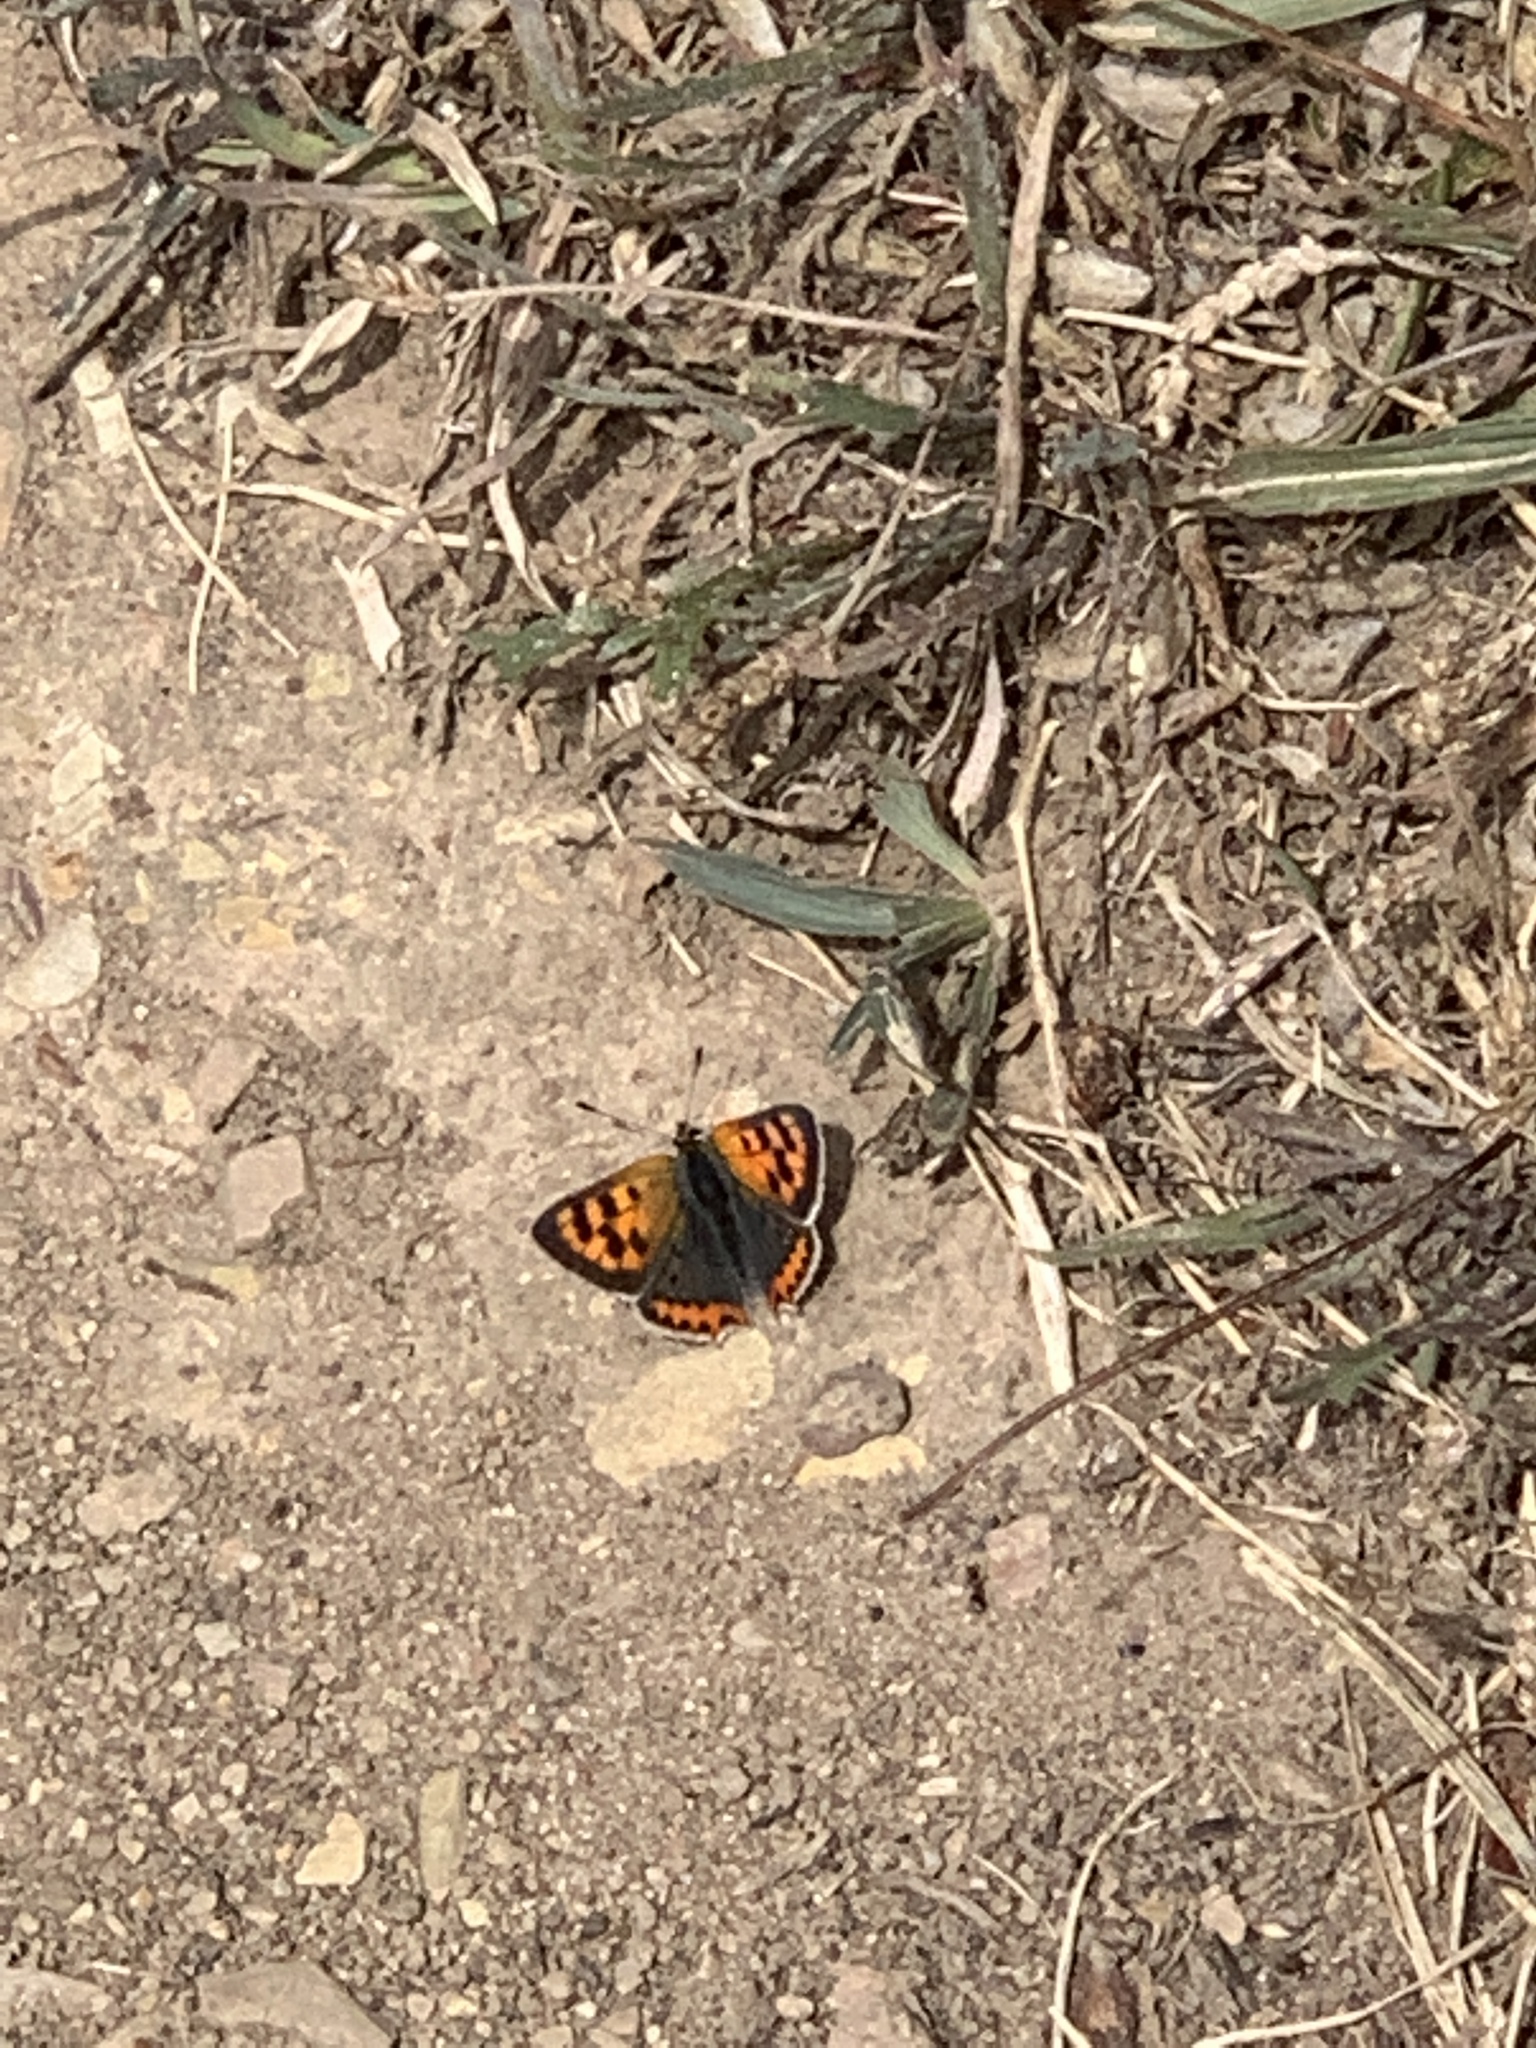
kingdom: Animalia
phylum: Arthropoda
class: Insecta
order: Lepidoptera
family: Lycaenidae
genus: Lycaena
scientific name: Lycaena phlaeas
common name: Small copper
